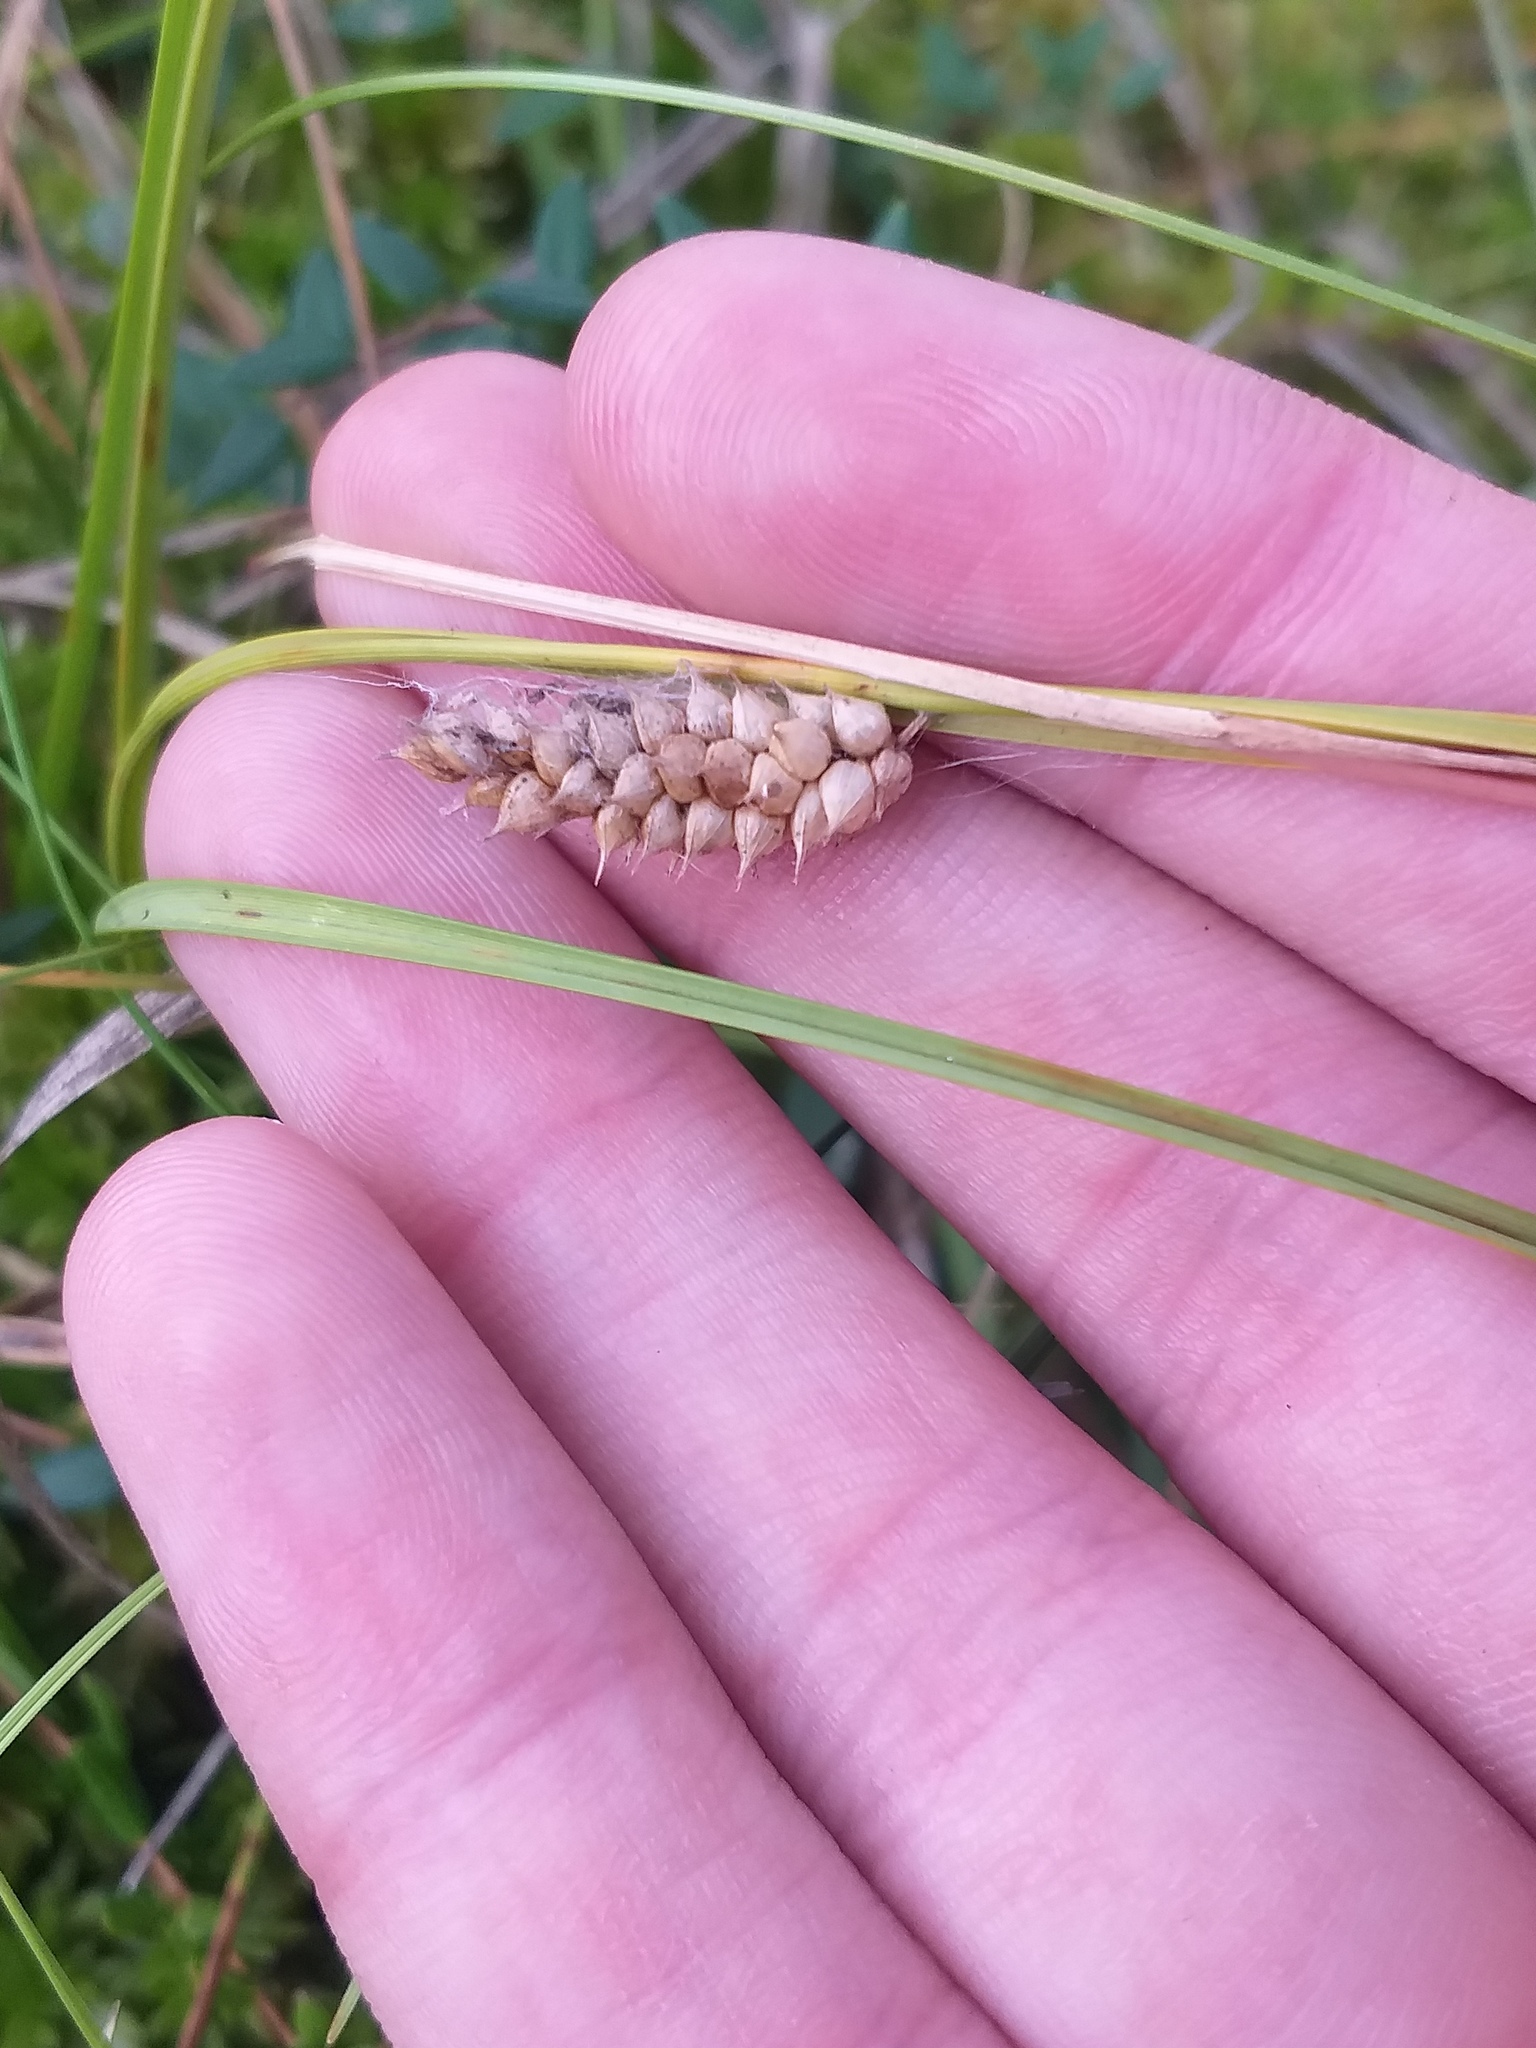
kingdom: Plantae
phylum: Tracheophyta
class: Liliopsida
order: Poales
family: Cyperaceae
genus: Carex
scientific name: Carex rostrata
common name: Bottle sedge
